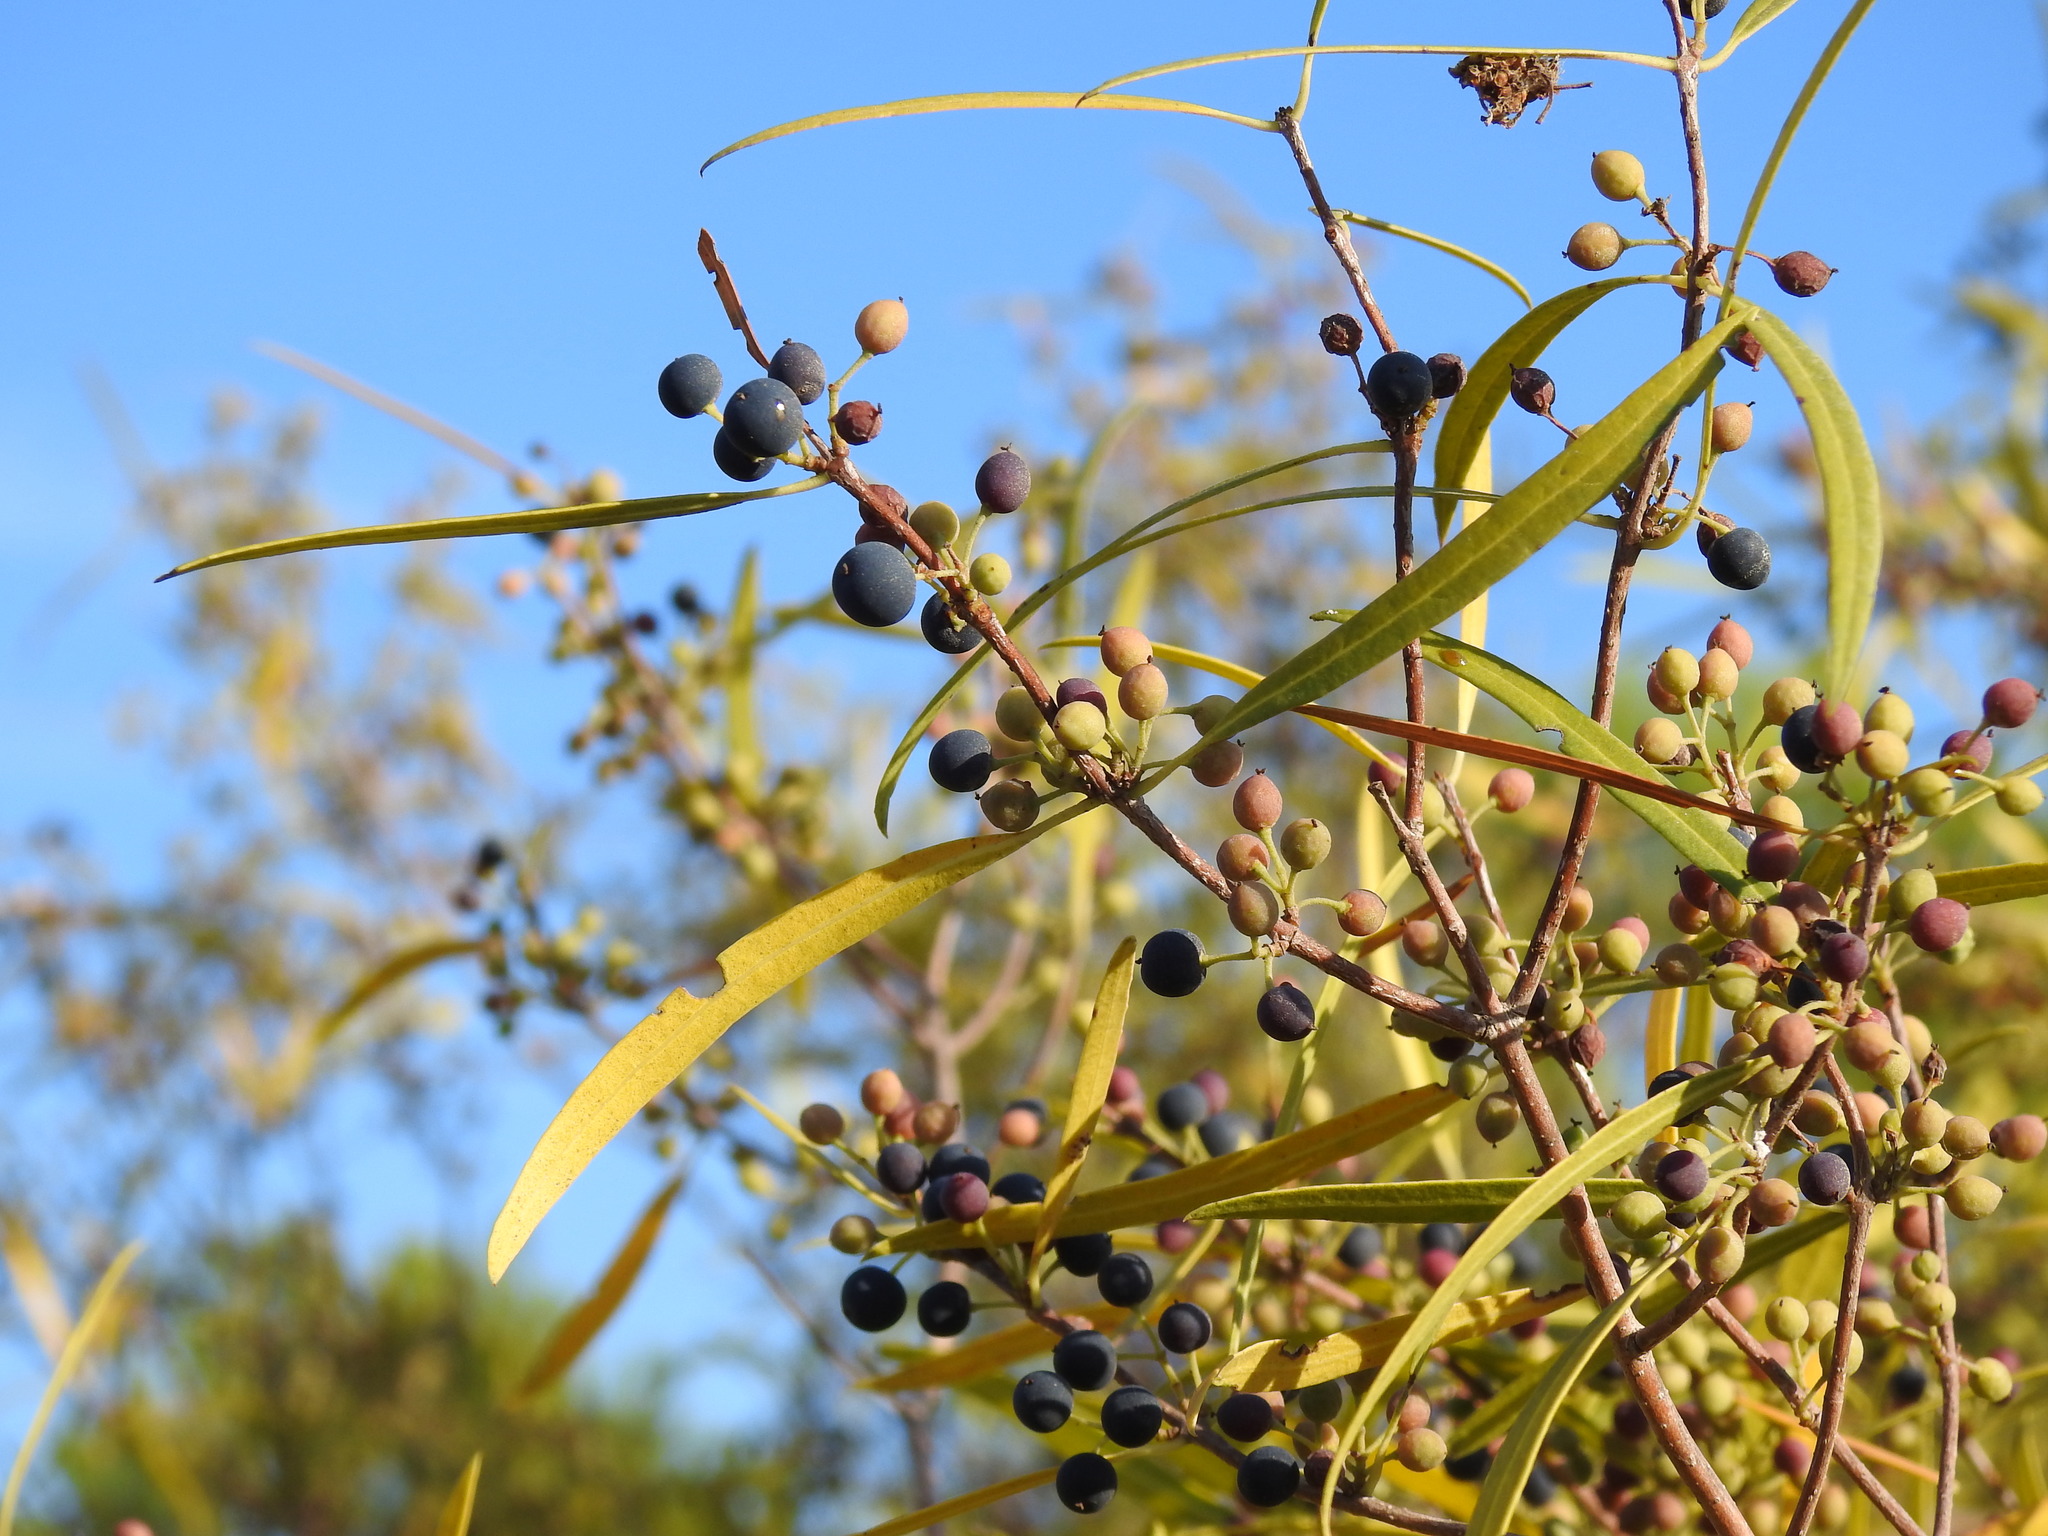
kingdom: Plantae
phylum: Tracheophyta
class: Magnoliopsida
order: Lamiales
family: Oleaceae
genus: Phillyrea
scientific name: Phillyrea angustifolia
